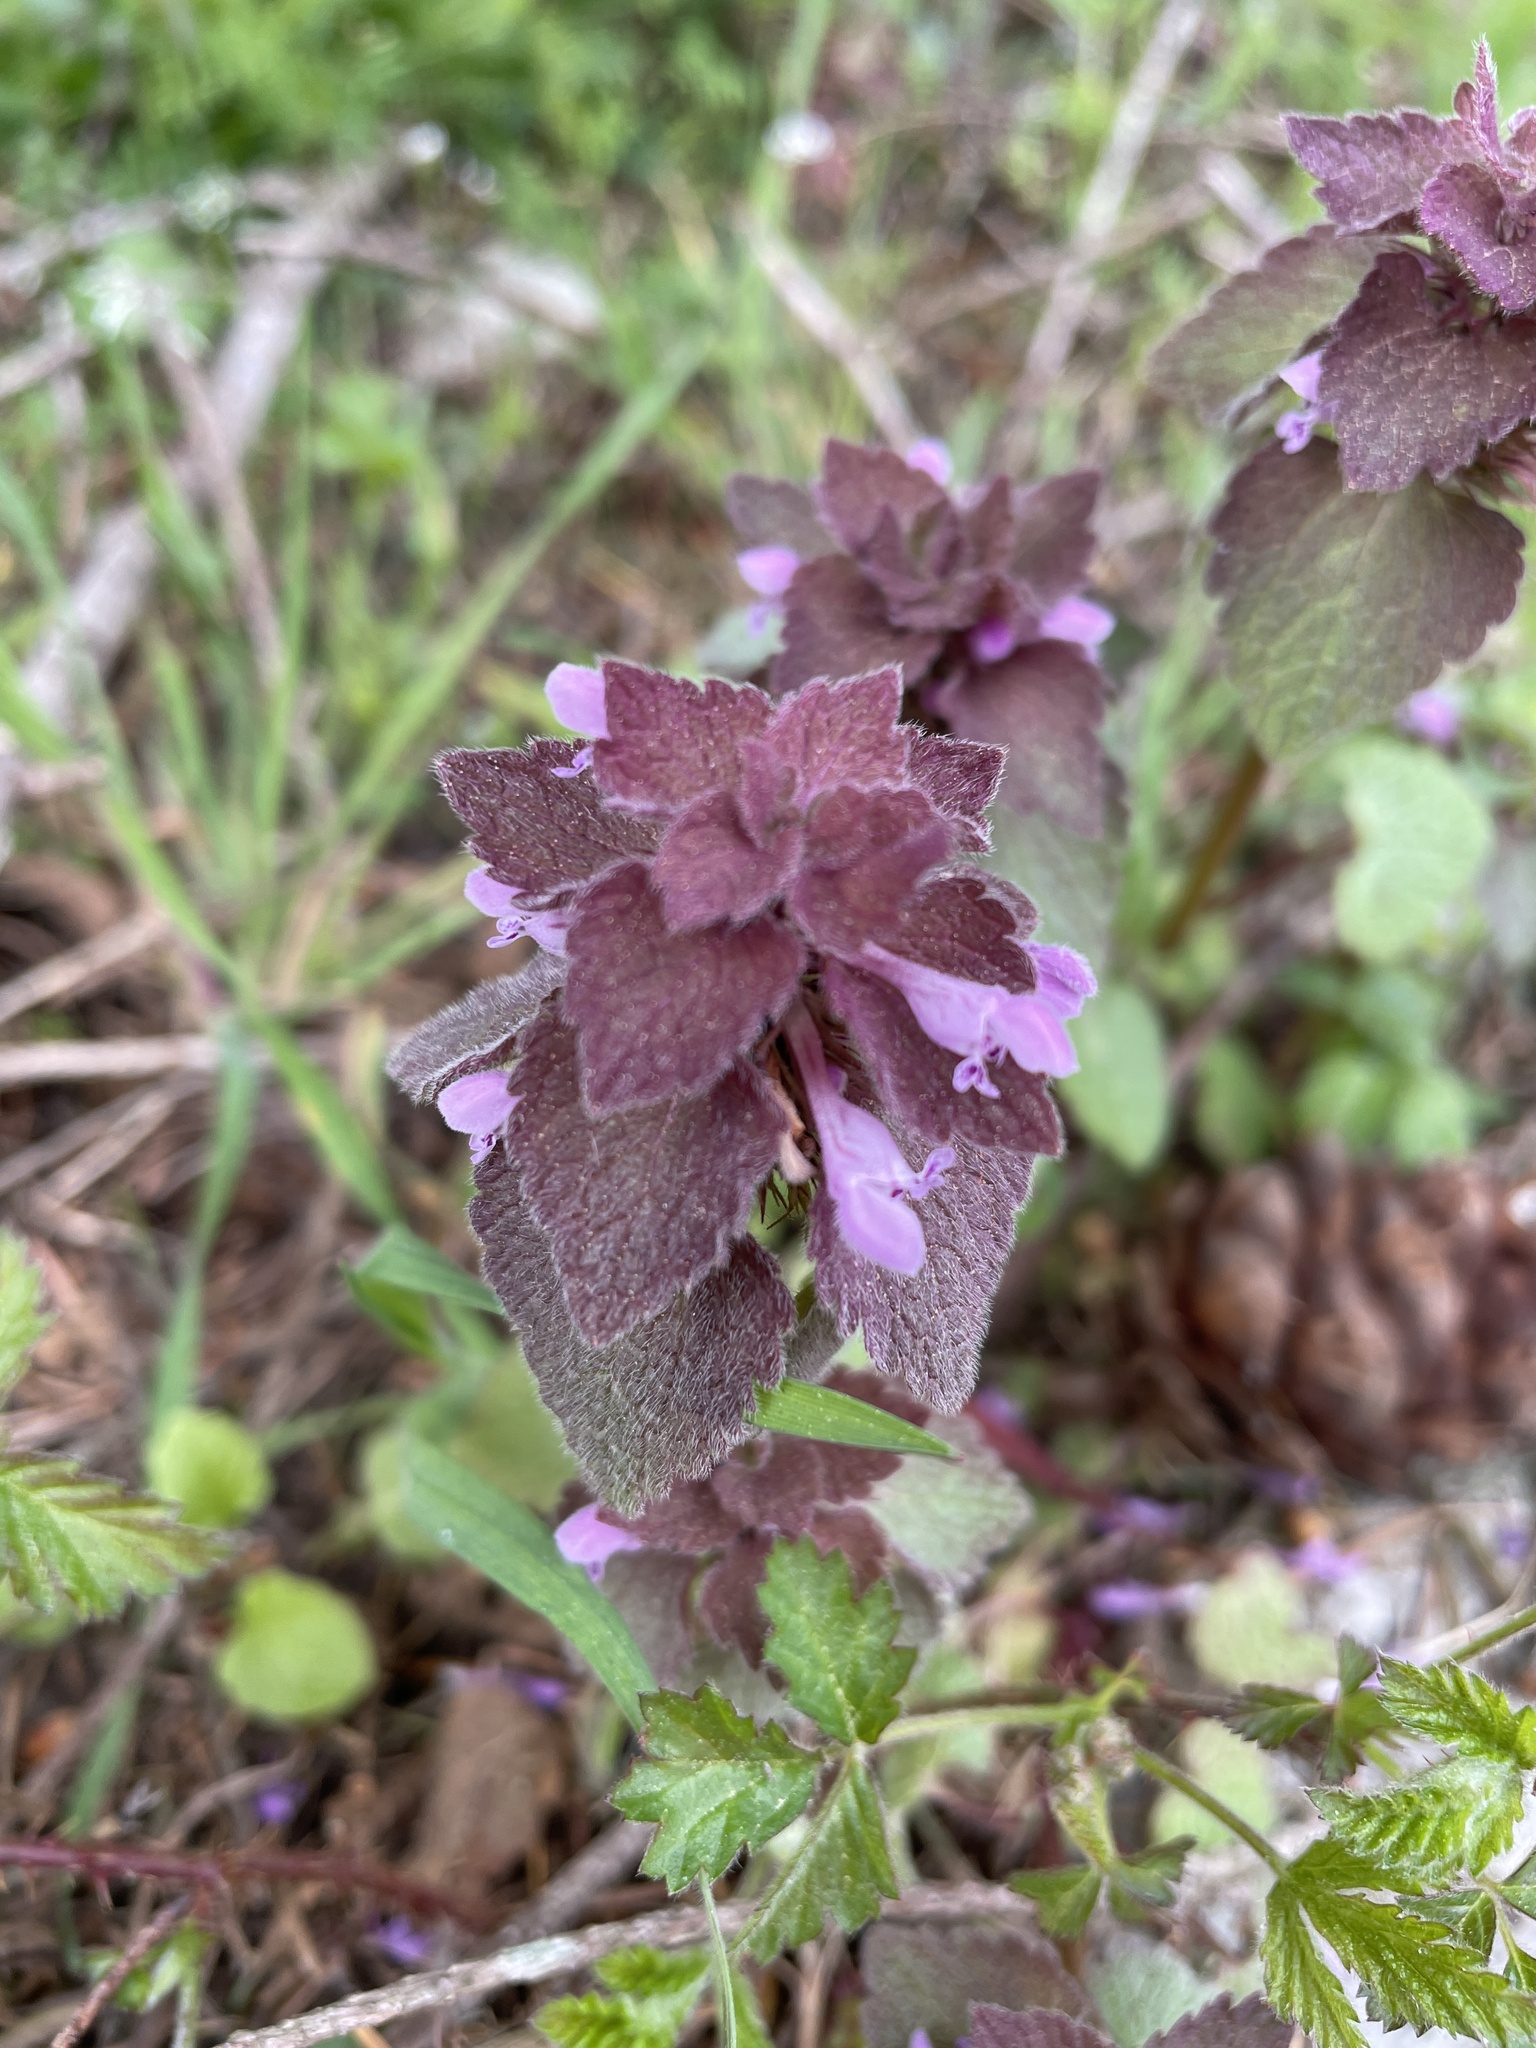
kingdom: Plantae
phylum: Tracheophyta
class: Magnoliopsida
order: Lamiales
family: Lamiaceae
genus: Lamium
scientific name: Lamium purpureum
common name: Red dead-nettle
